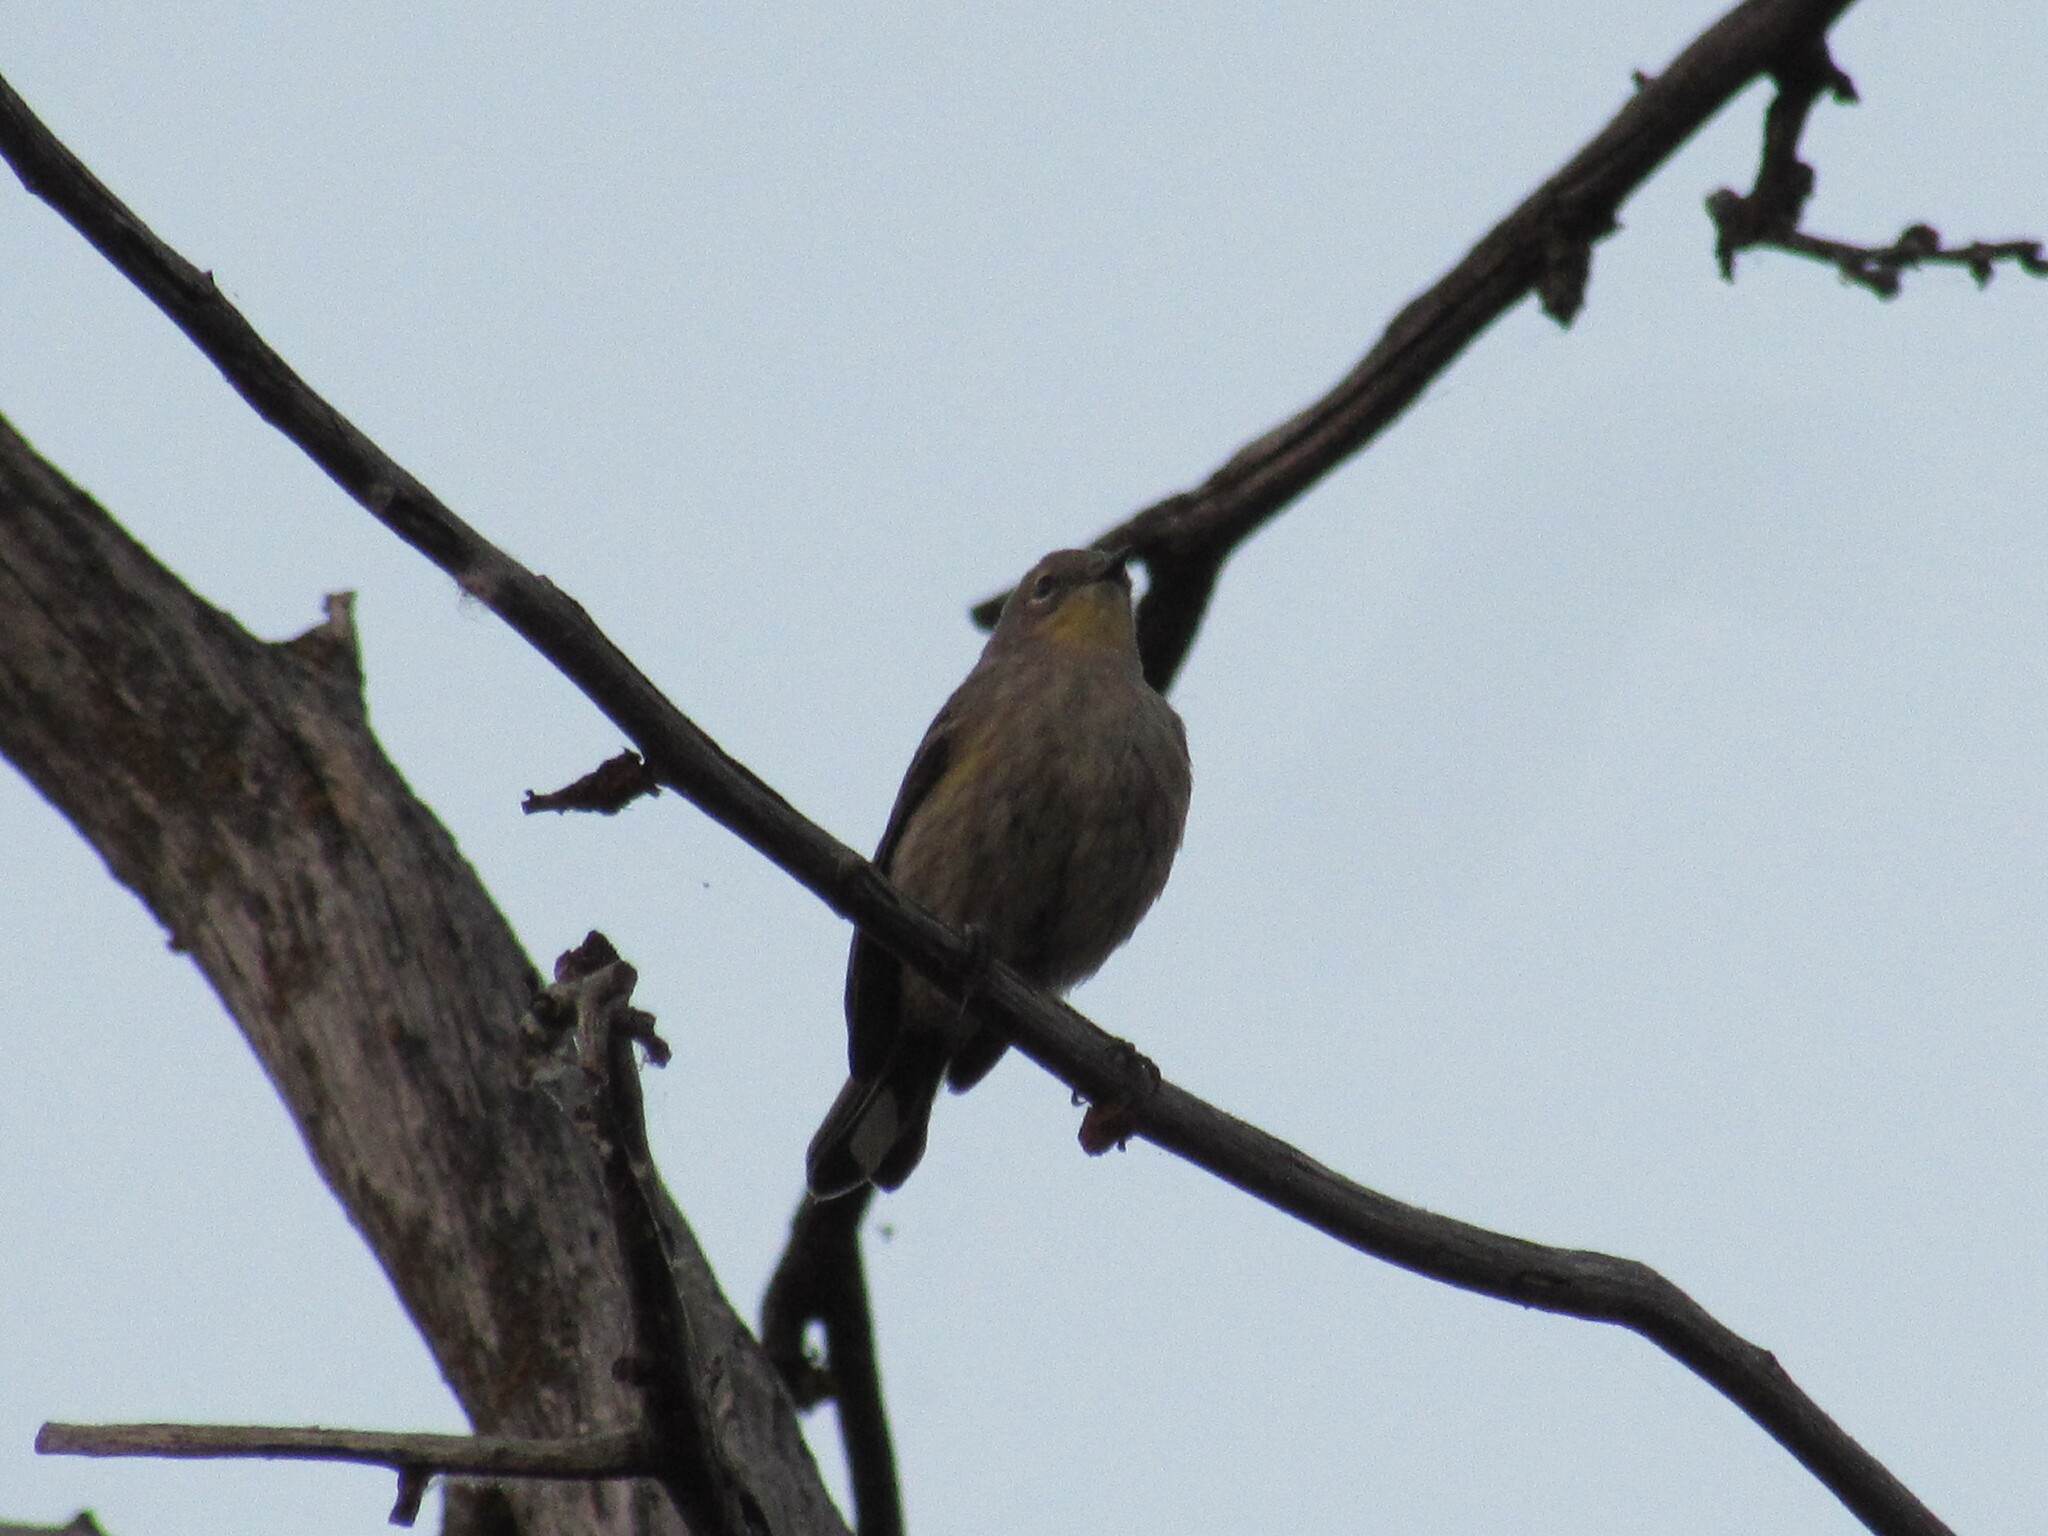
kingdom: Animalia
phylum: Chordata
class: Aves
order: Passeriformes
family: Parulidae
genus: Setophaga
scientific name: Setophaga coronata
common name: Myrtle warbler
